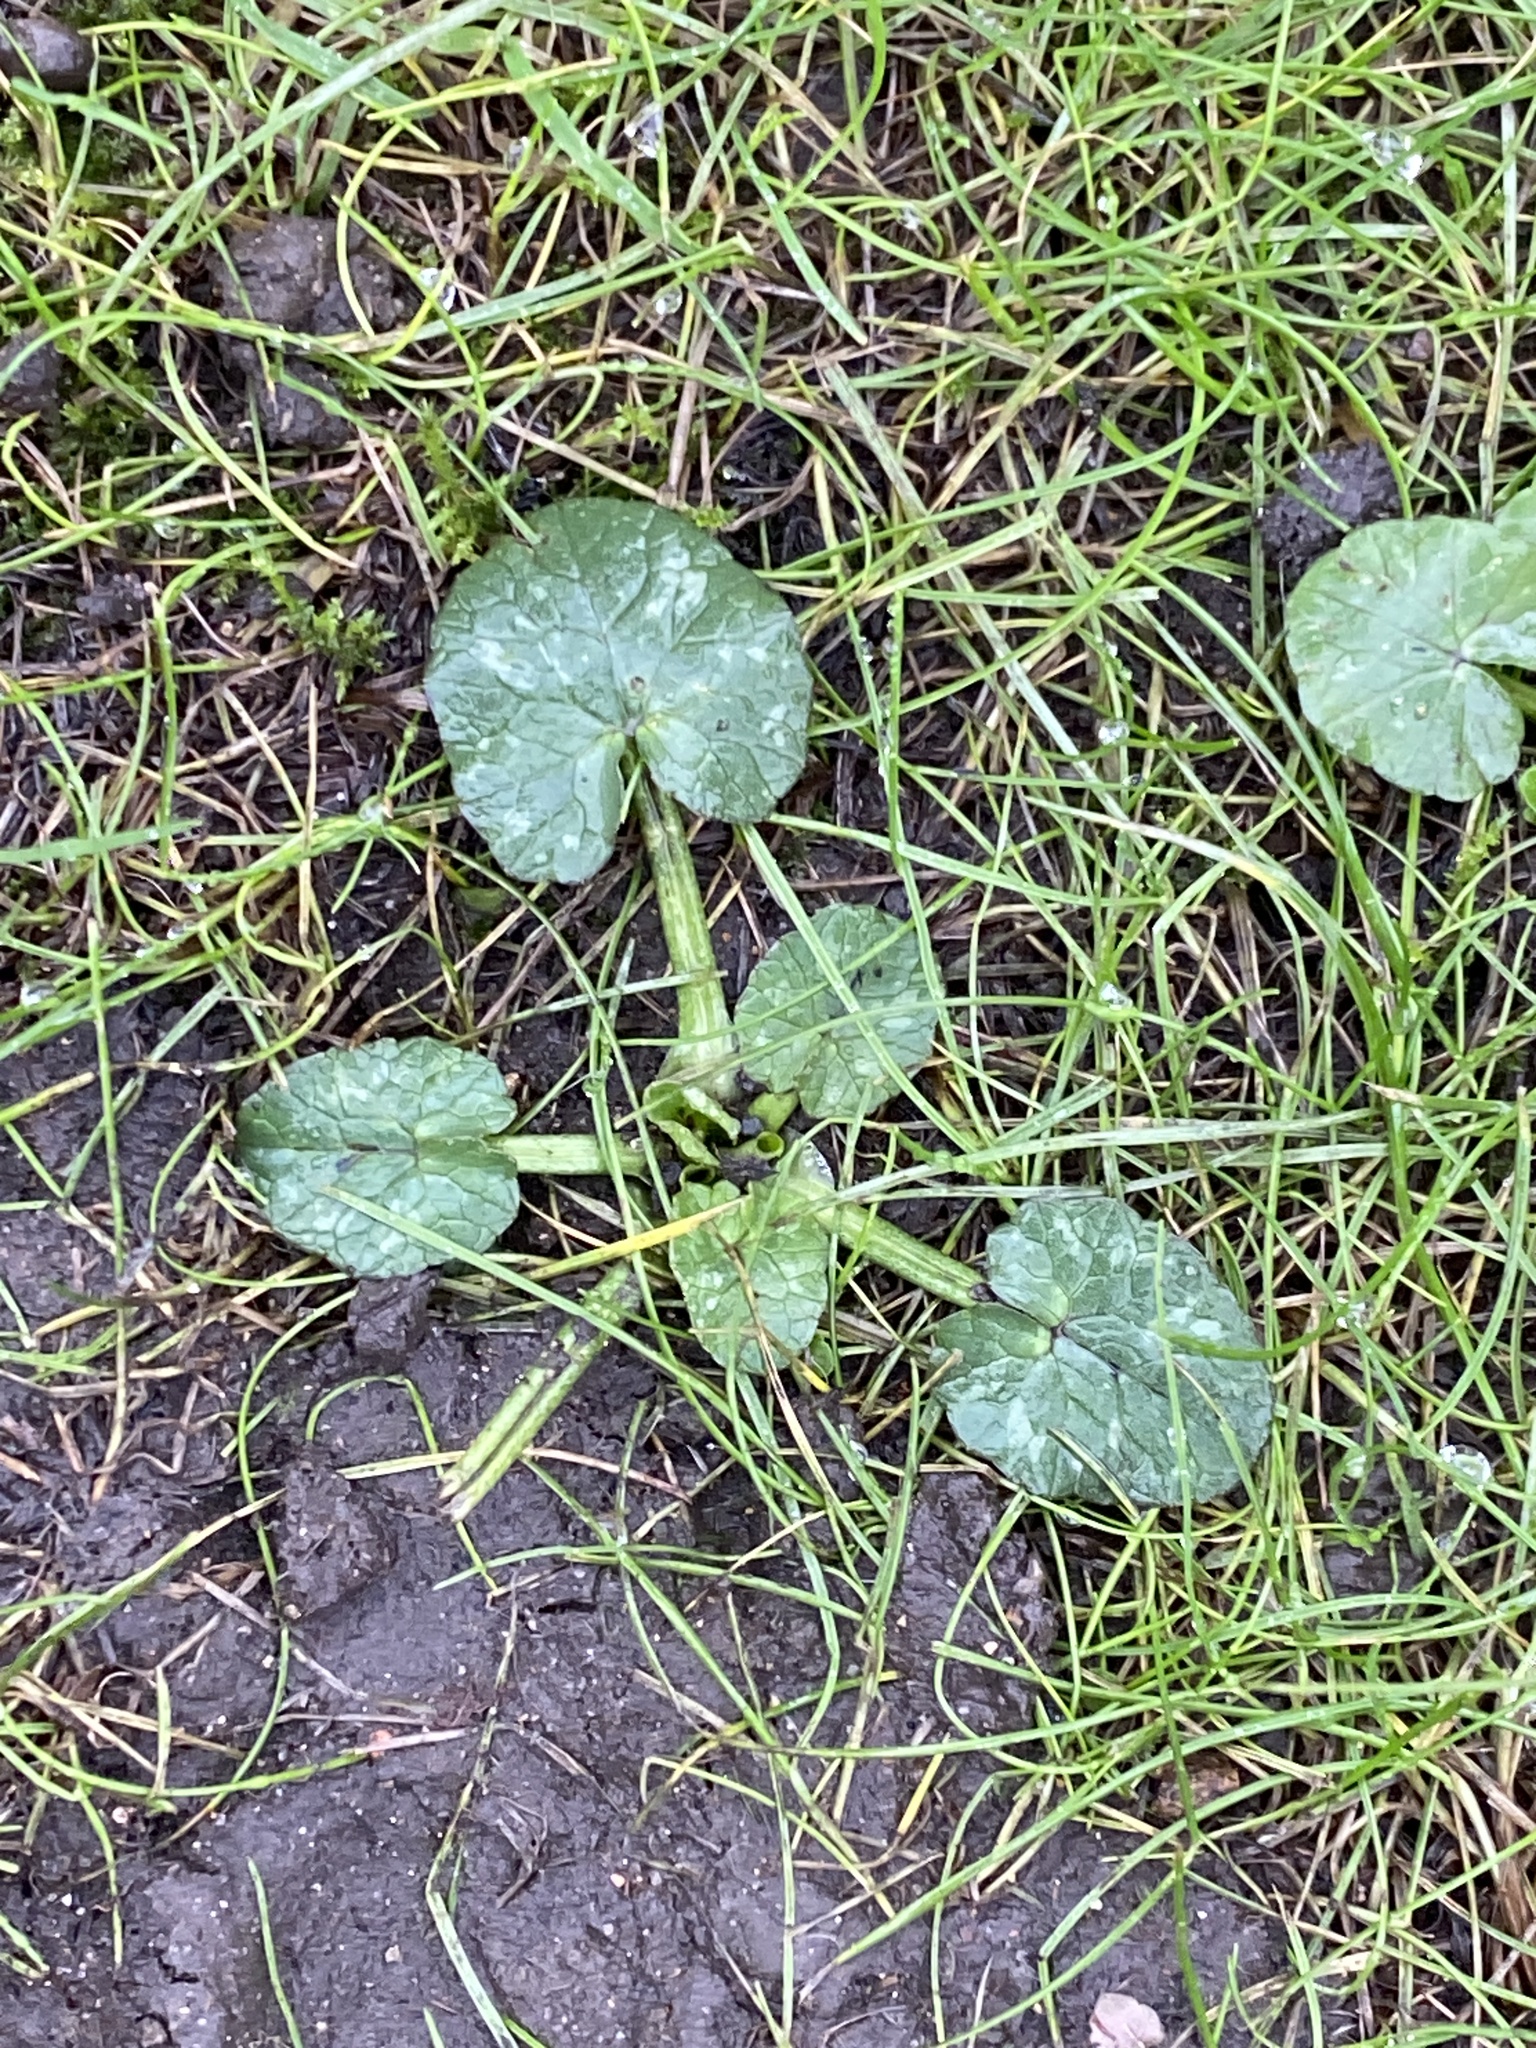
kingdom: Plantae
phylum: Tracheophyta
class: Magnoliopsida
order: Ranunculales
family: Ranunculaceae
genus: Ficaria
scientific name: Ficaria verna
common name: Lesser celandine
